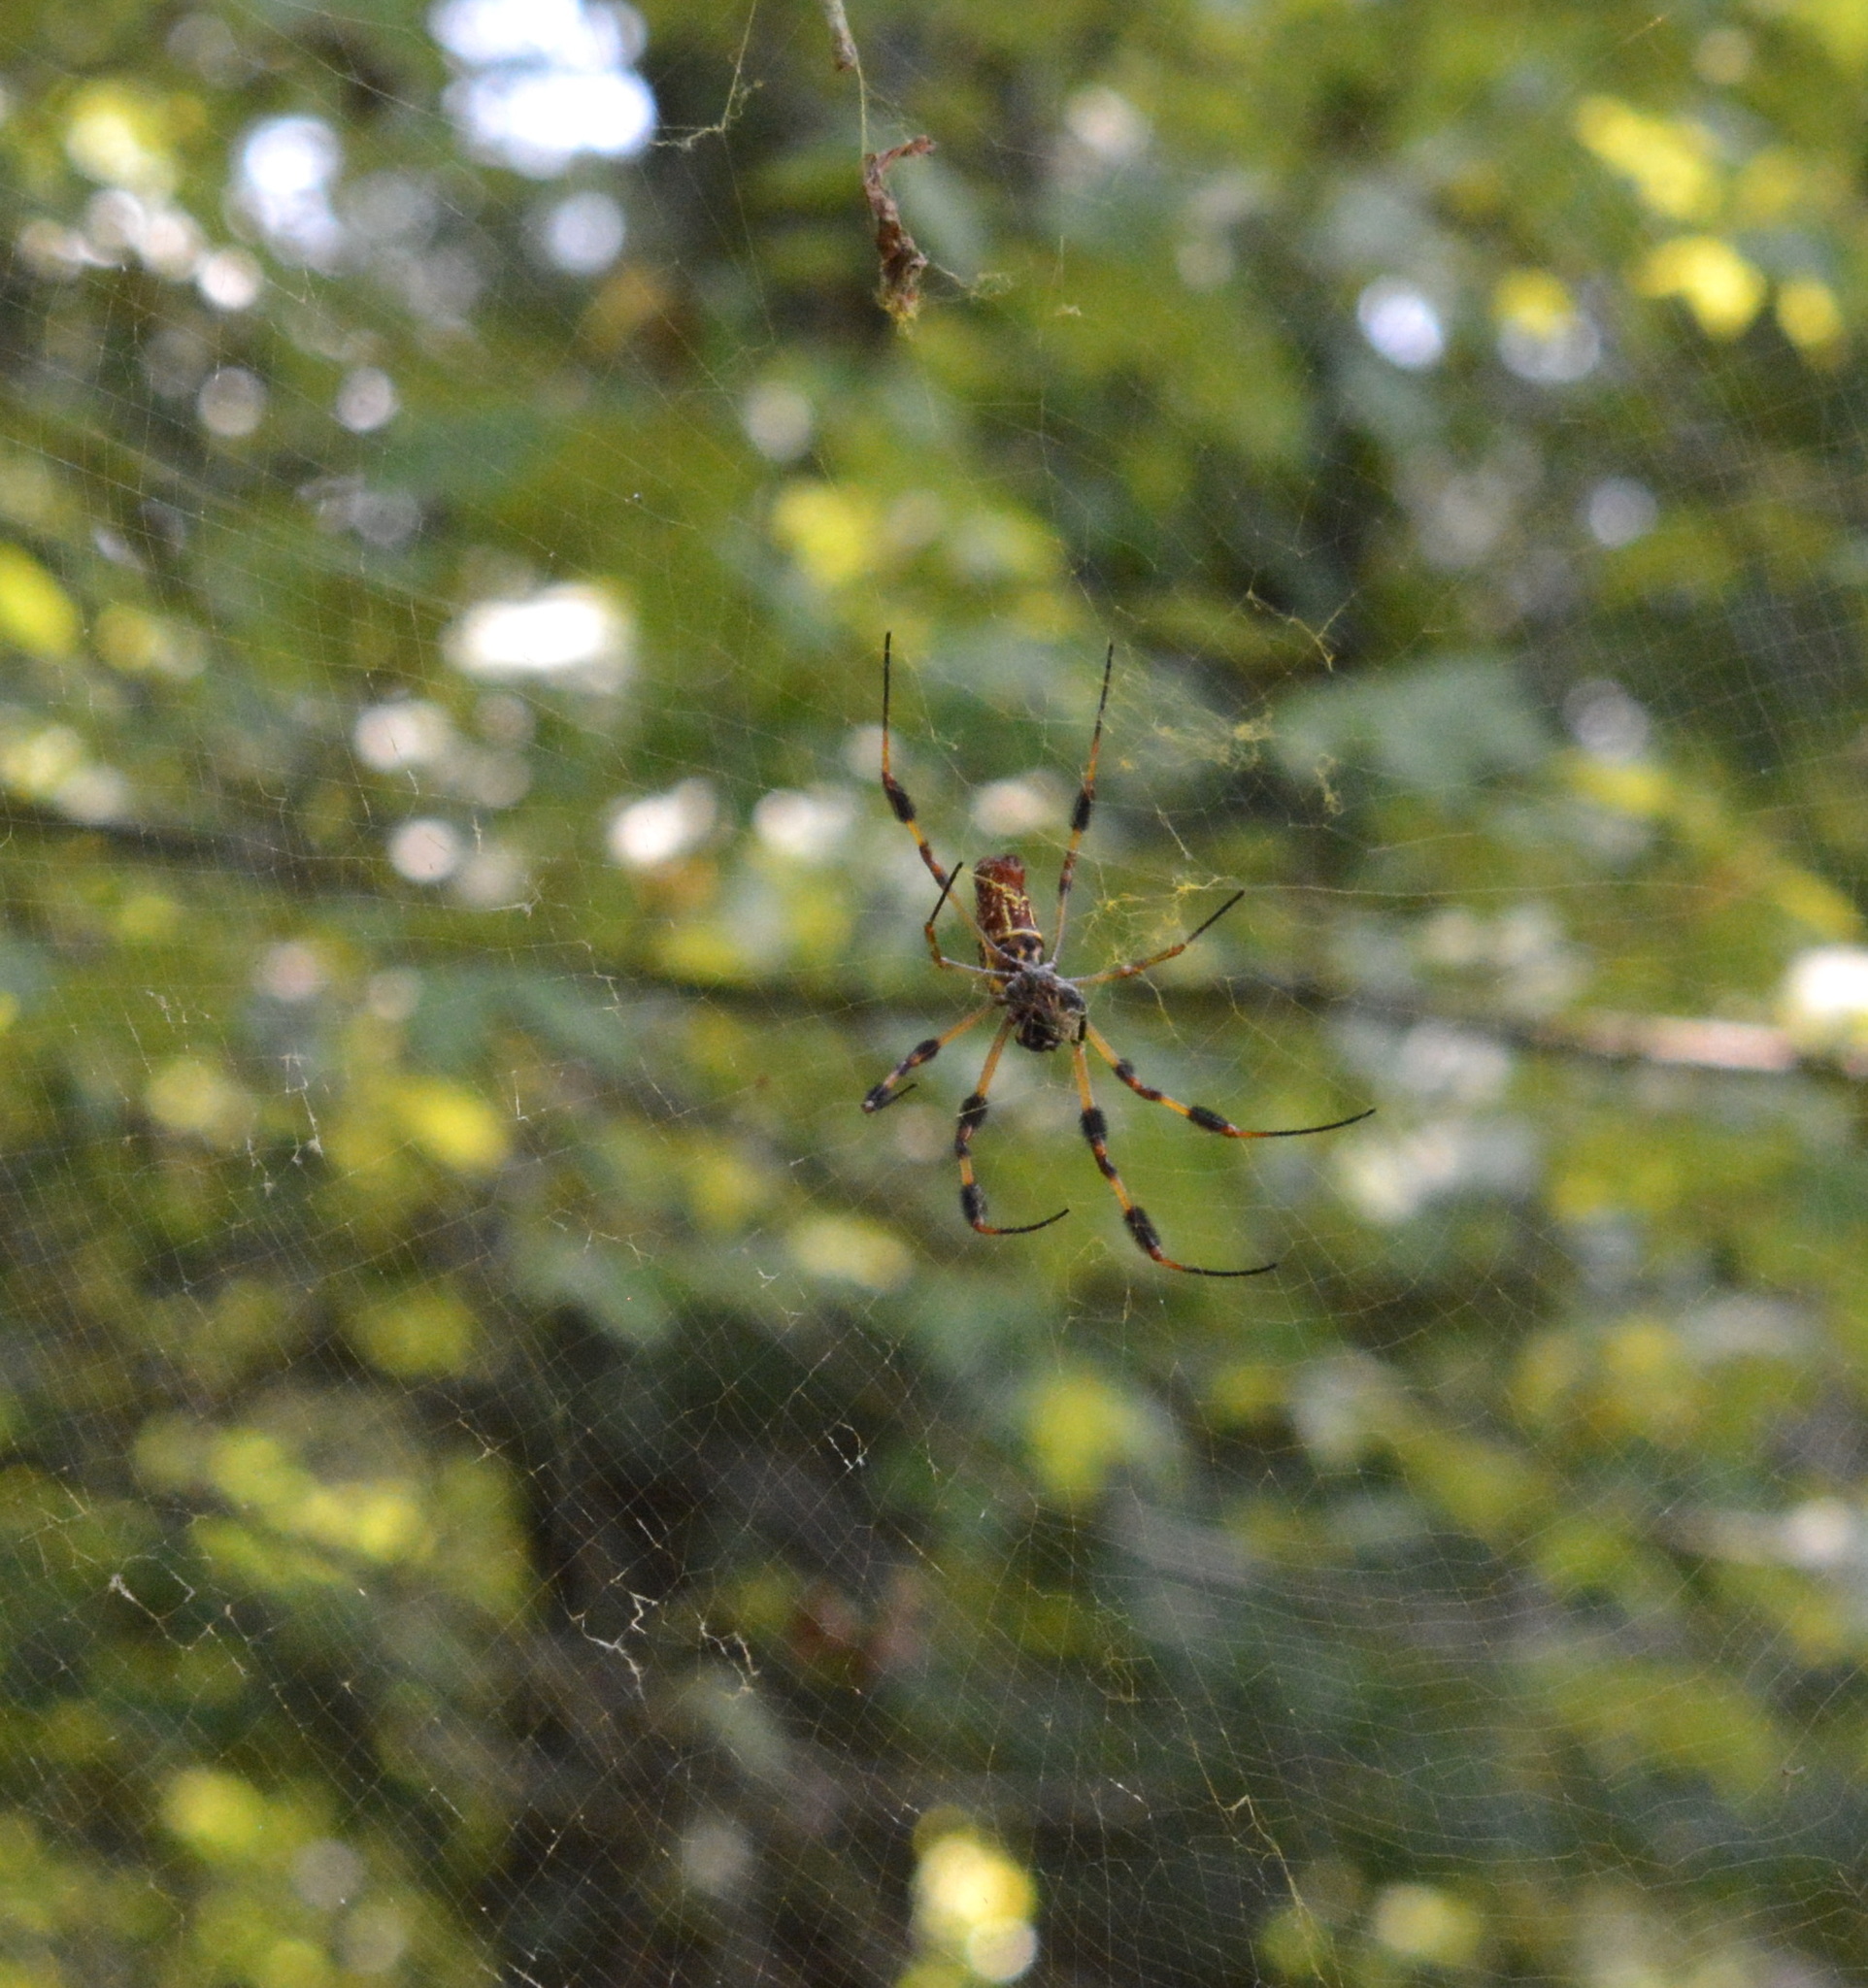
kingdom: Animalia
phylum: Arthropoda
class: Arachnida
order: Araneae
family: Araneidae
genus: Trichonephila
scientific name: Trichonephila clavipes
